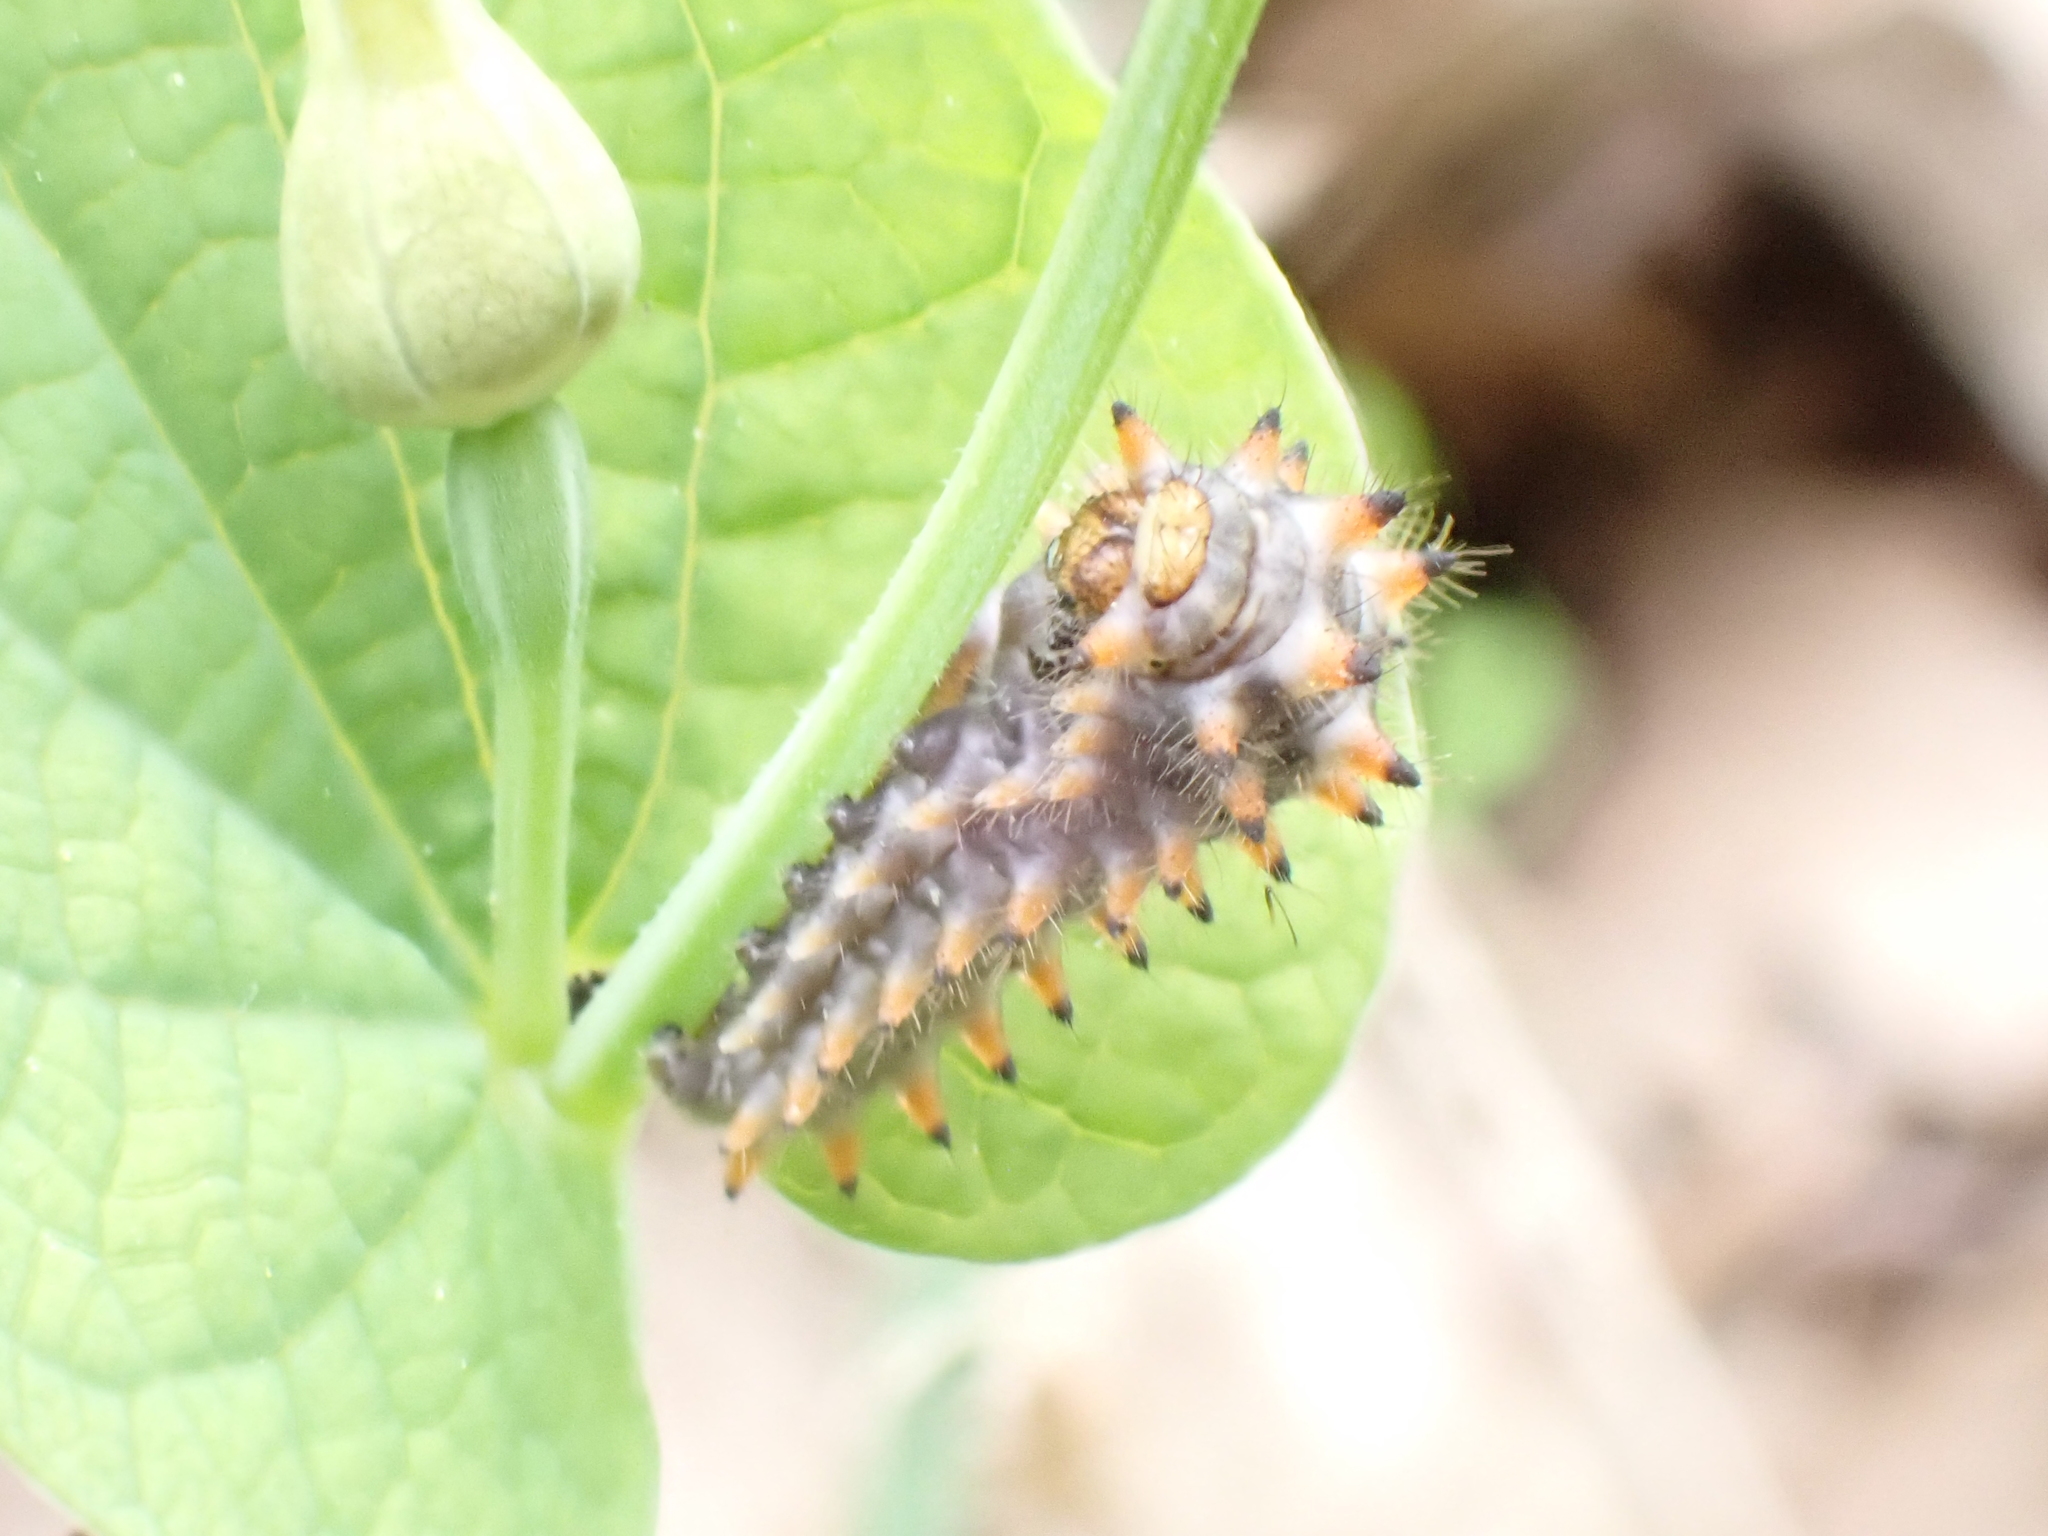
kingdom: Animalia
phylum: Arthropoda
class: Insecta
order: Lepidoptera
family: Papilionidae
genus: Zerynthia
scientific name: Zerynthia polyxena
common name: Southern festoon
